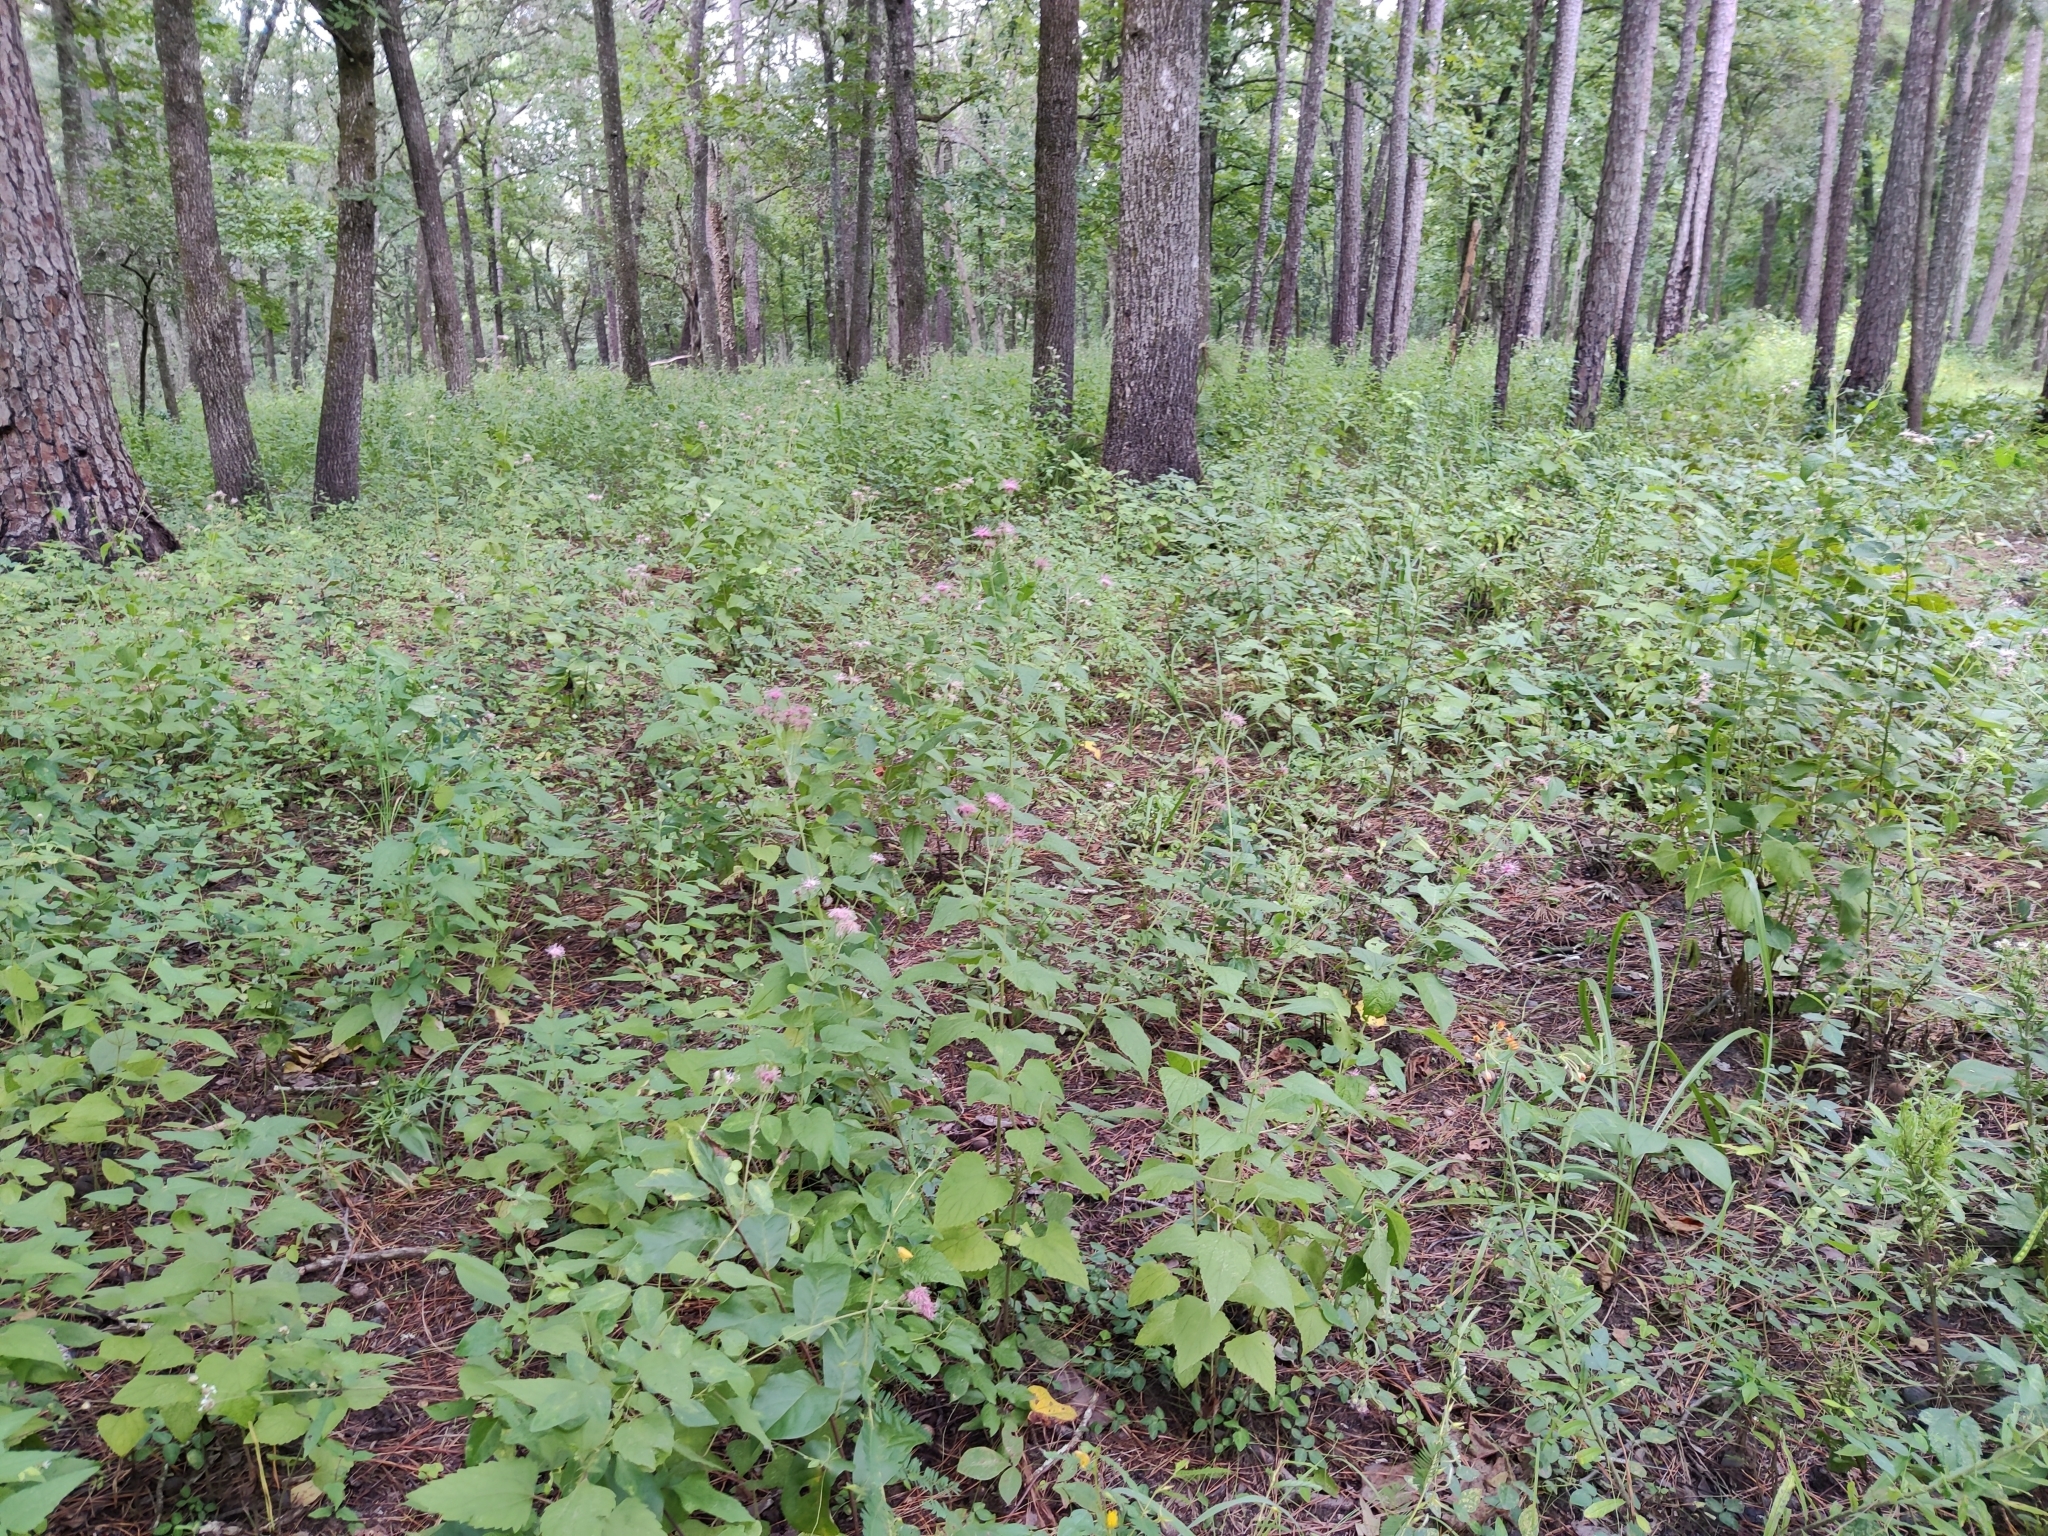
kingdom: Plantae
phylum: Tracheophyta
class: Magnoliopsida
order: Asterales
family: Asteraceae
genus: Brickellia
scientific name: Brickellia cordifolia
